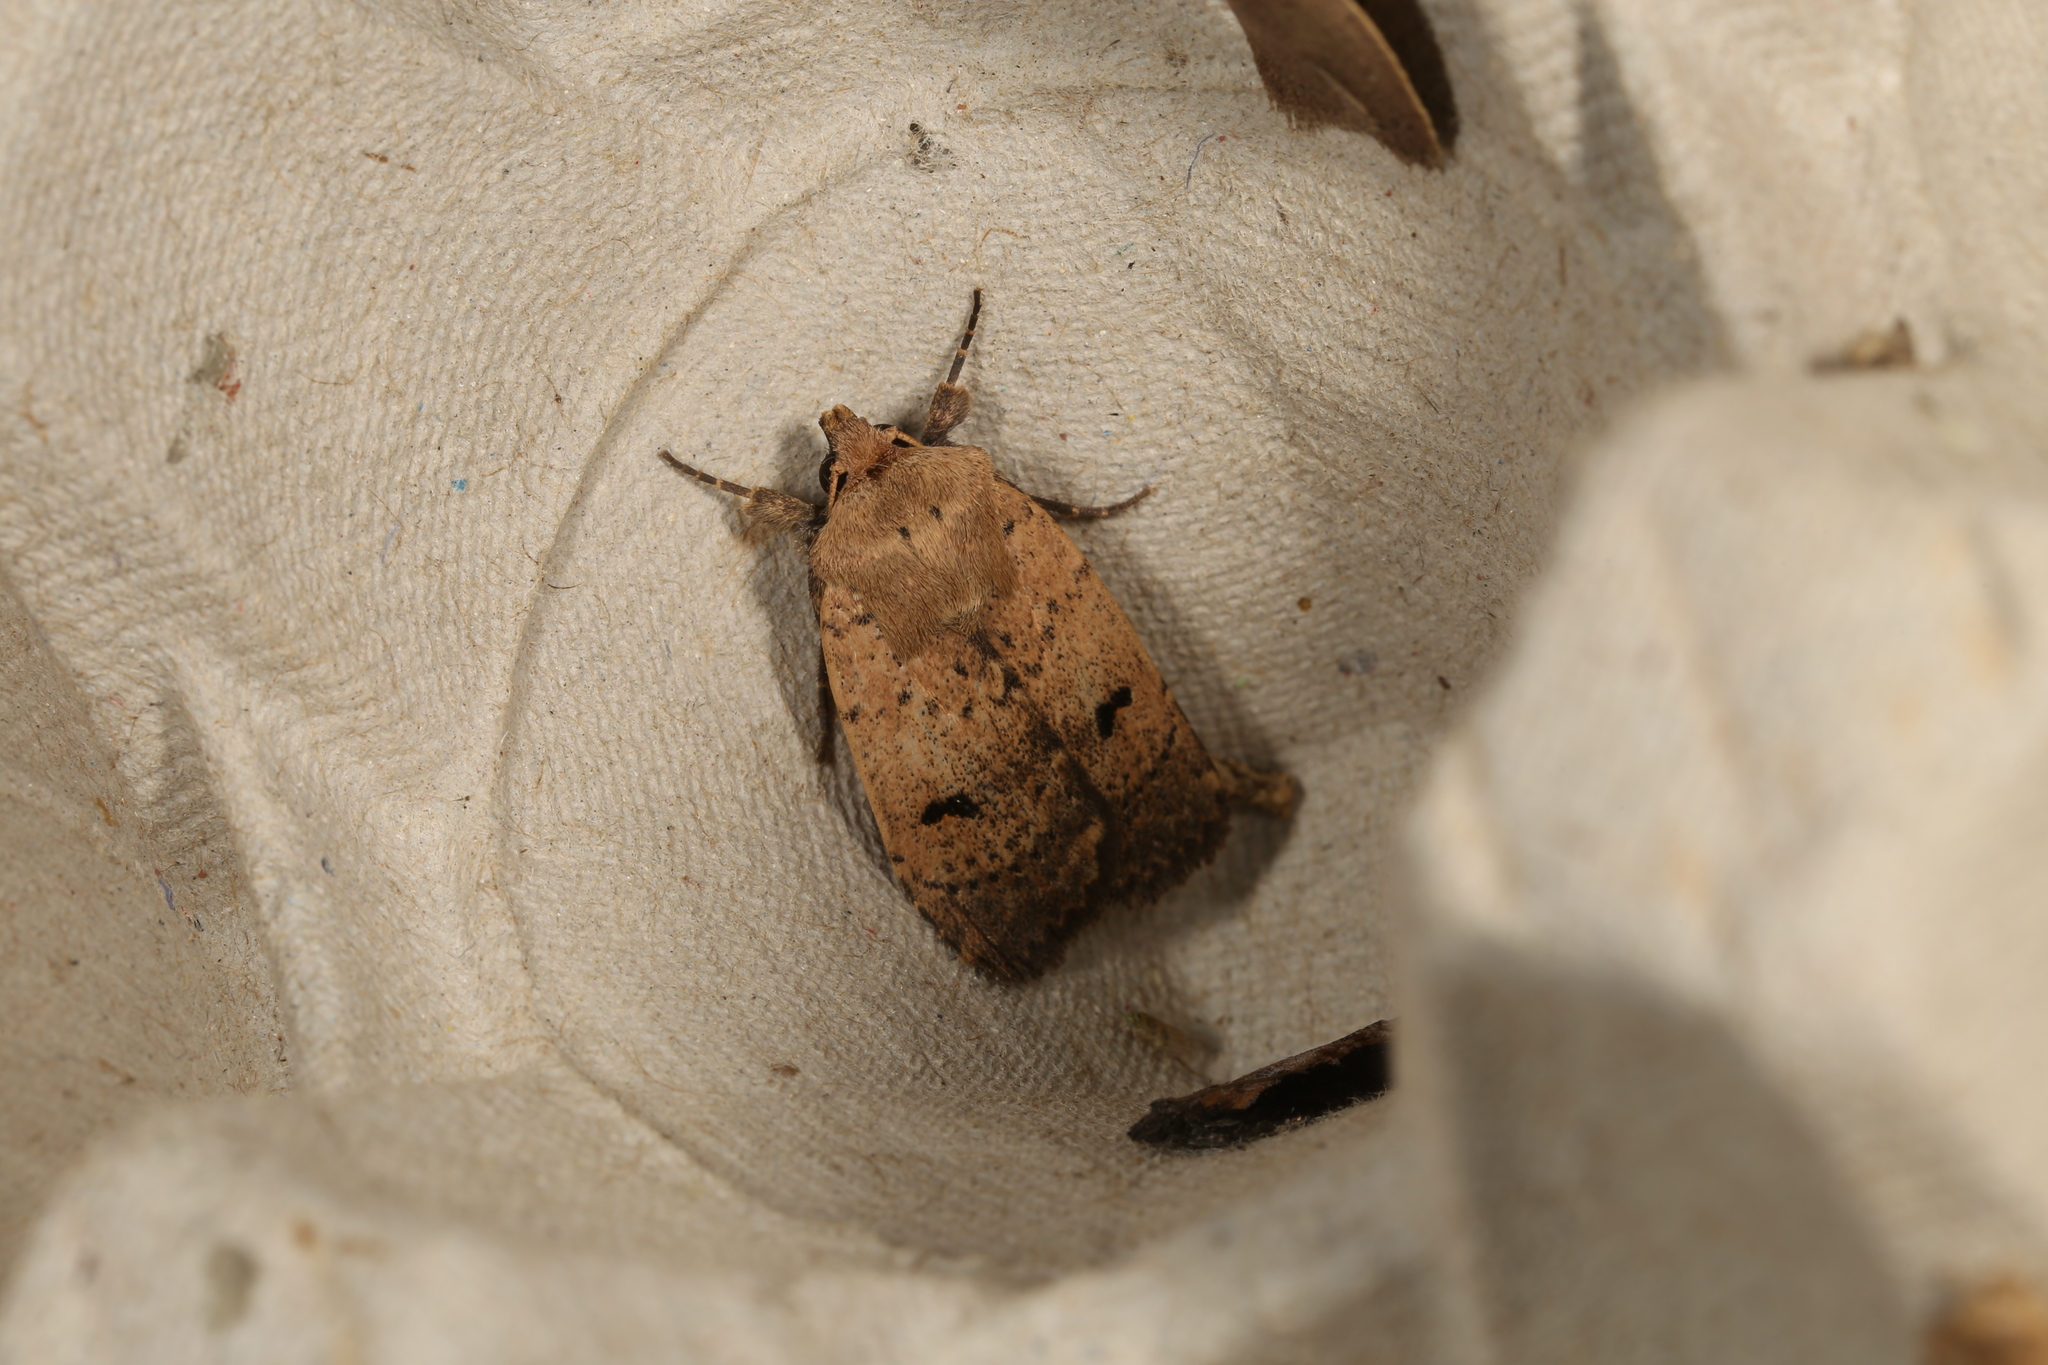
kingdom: Animalia
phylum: Arthropoda
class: Insecta
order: Lepidoptera
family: Noctuidae
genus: Proteuxoa
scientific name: Proteuxoa hypochalchis
